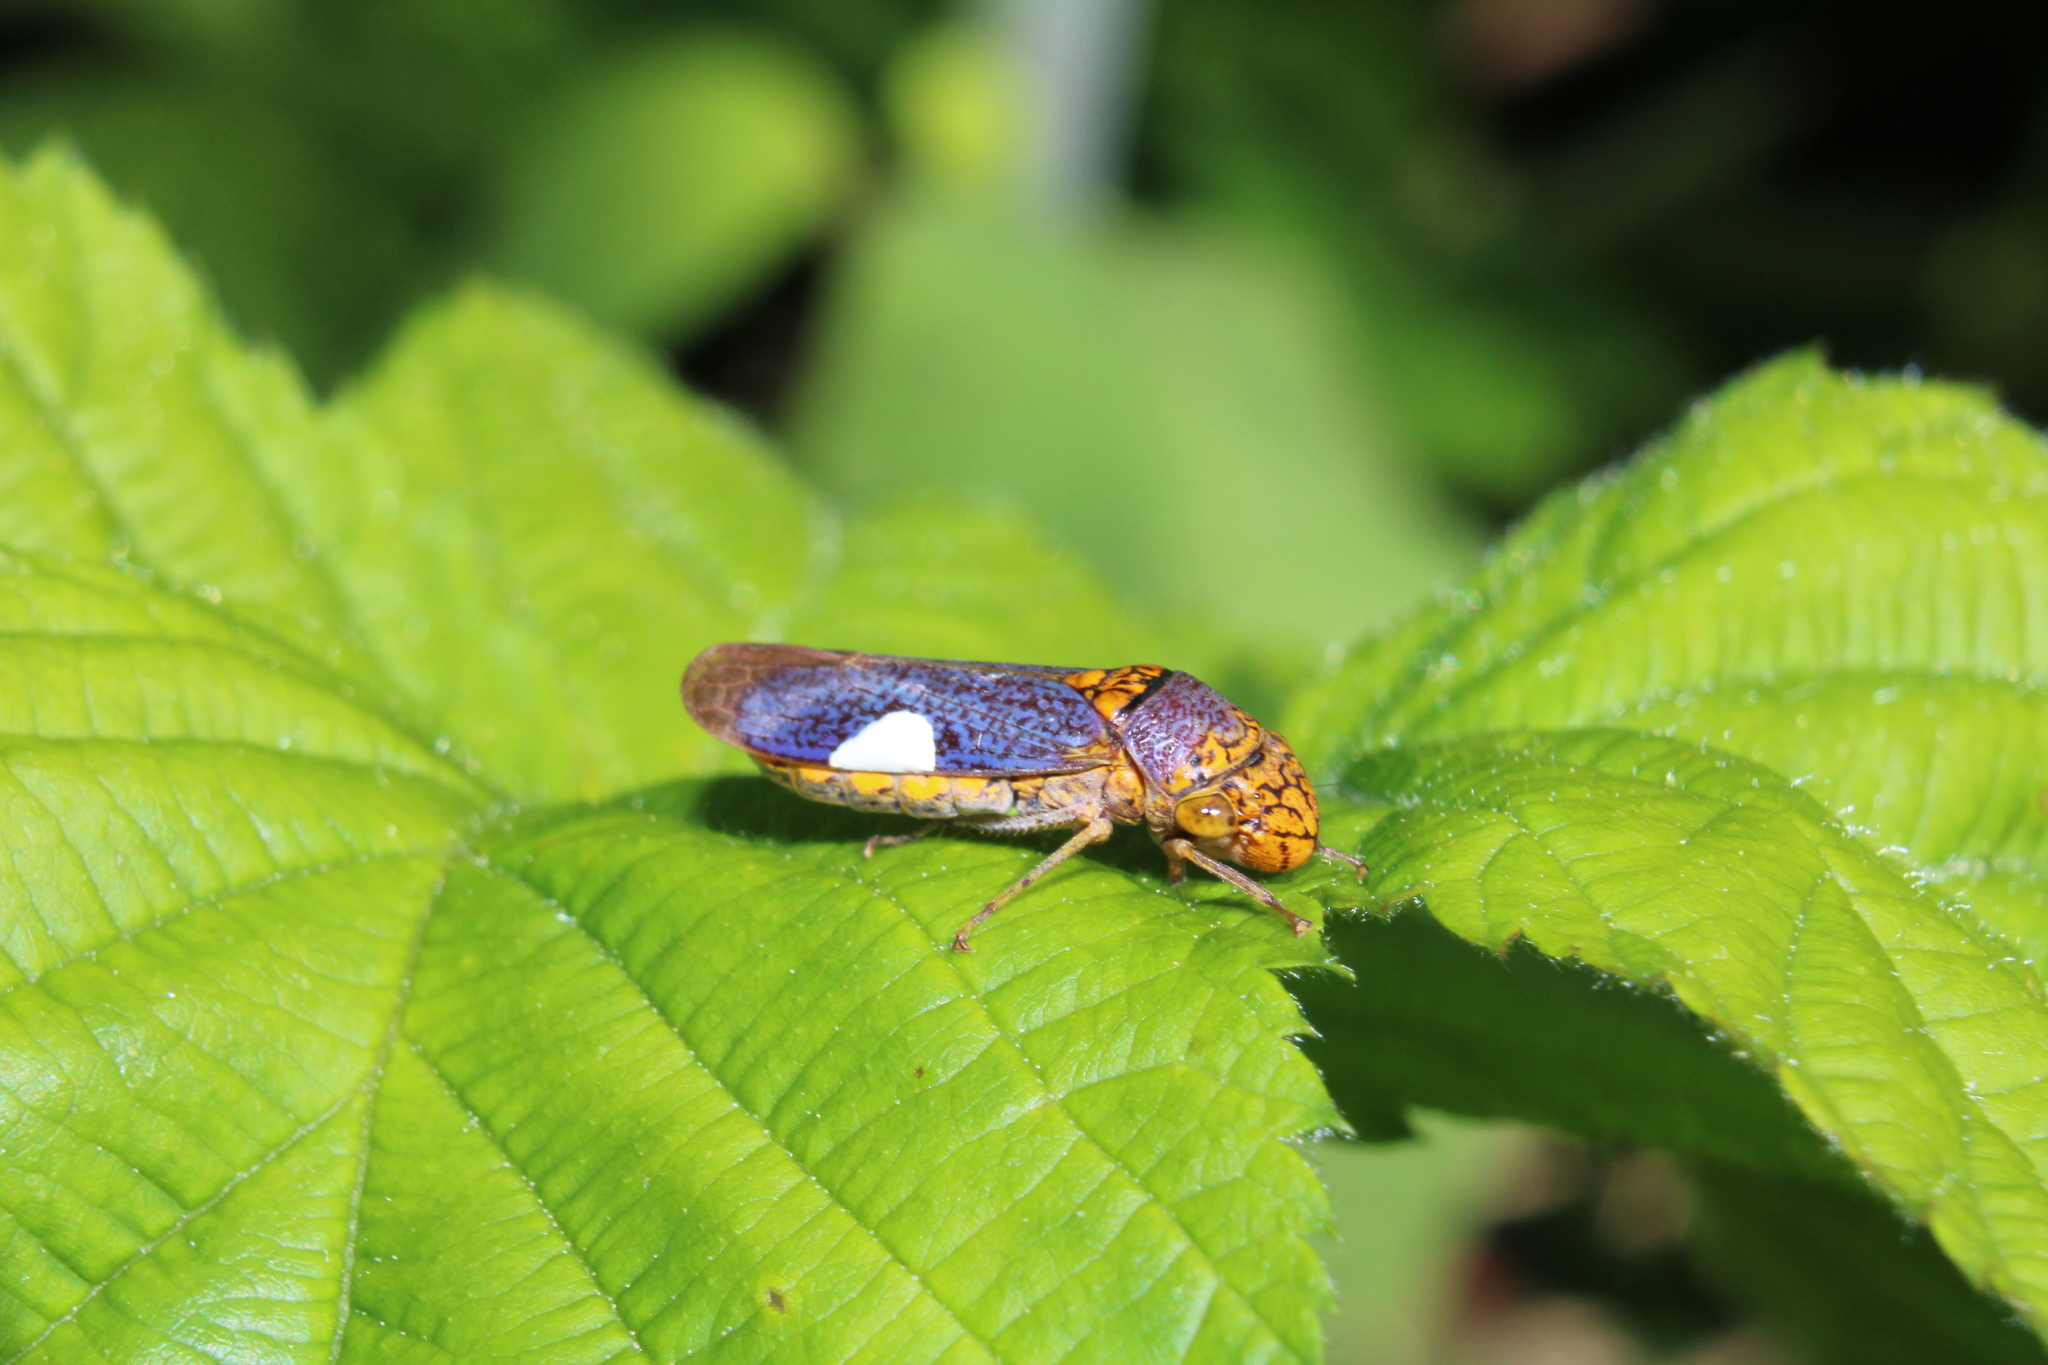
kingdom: Animalia
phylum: Arthropoda
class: Insecta
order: Hemiptera
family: Cicadellidae
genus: Oncometopia
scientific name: Oncometopia orbona
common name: Broad-headed sharpshooter
